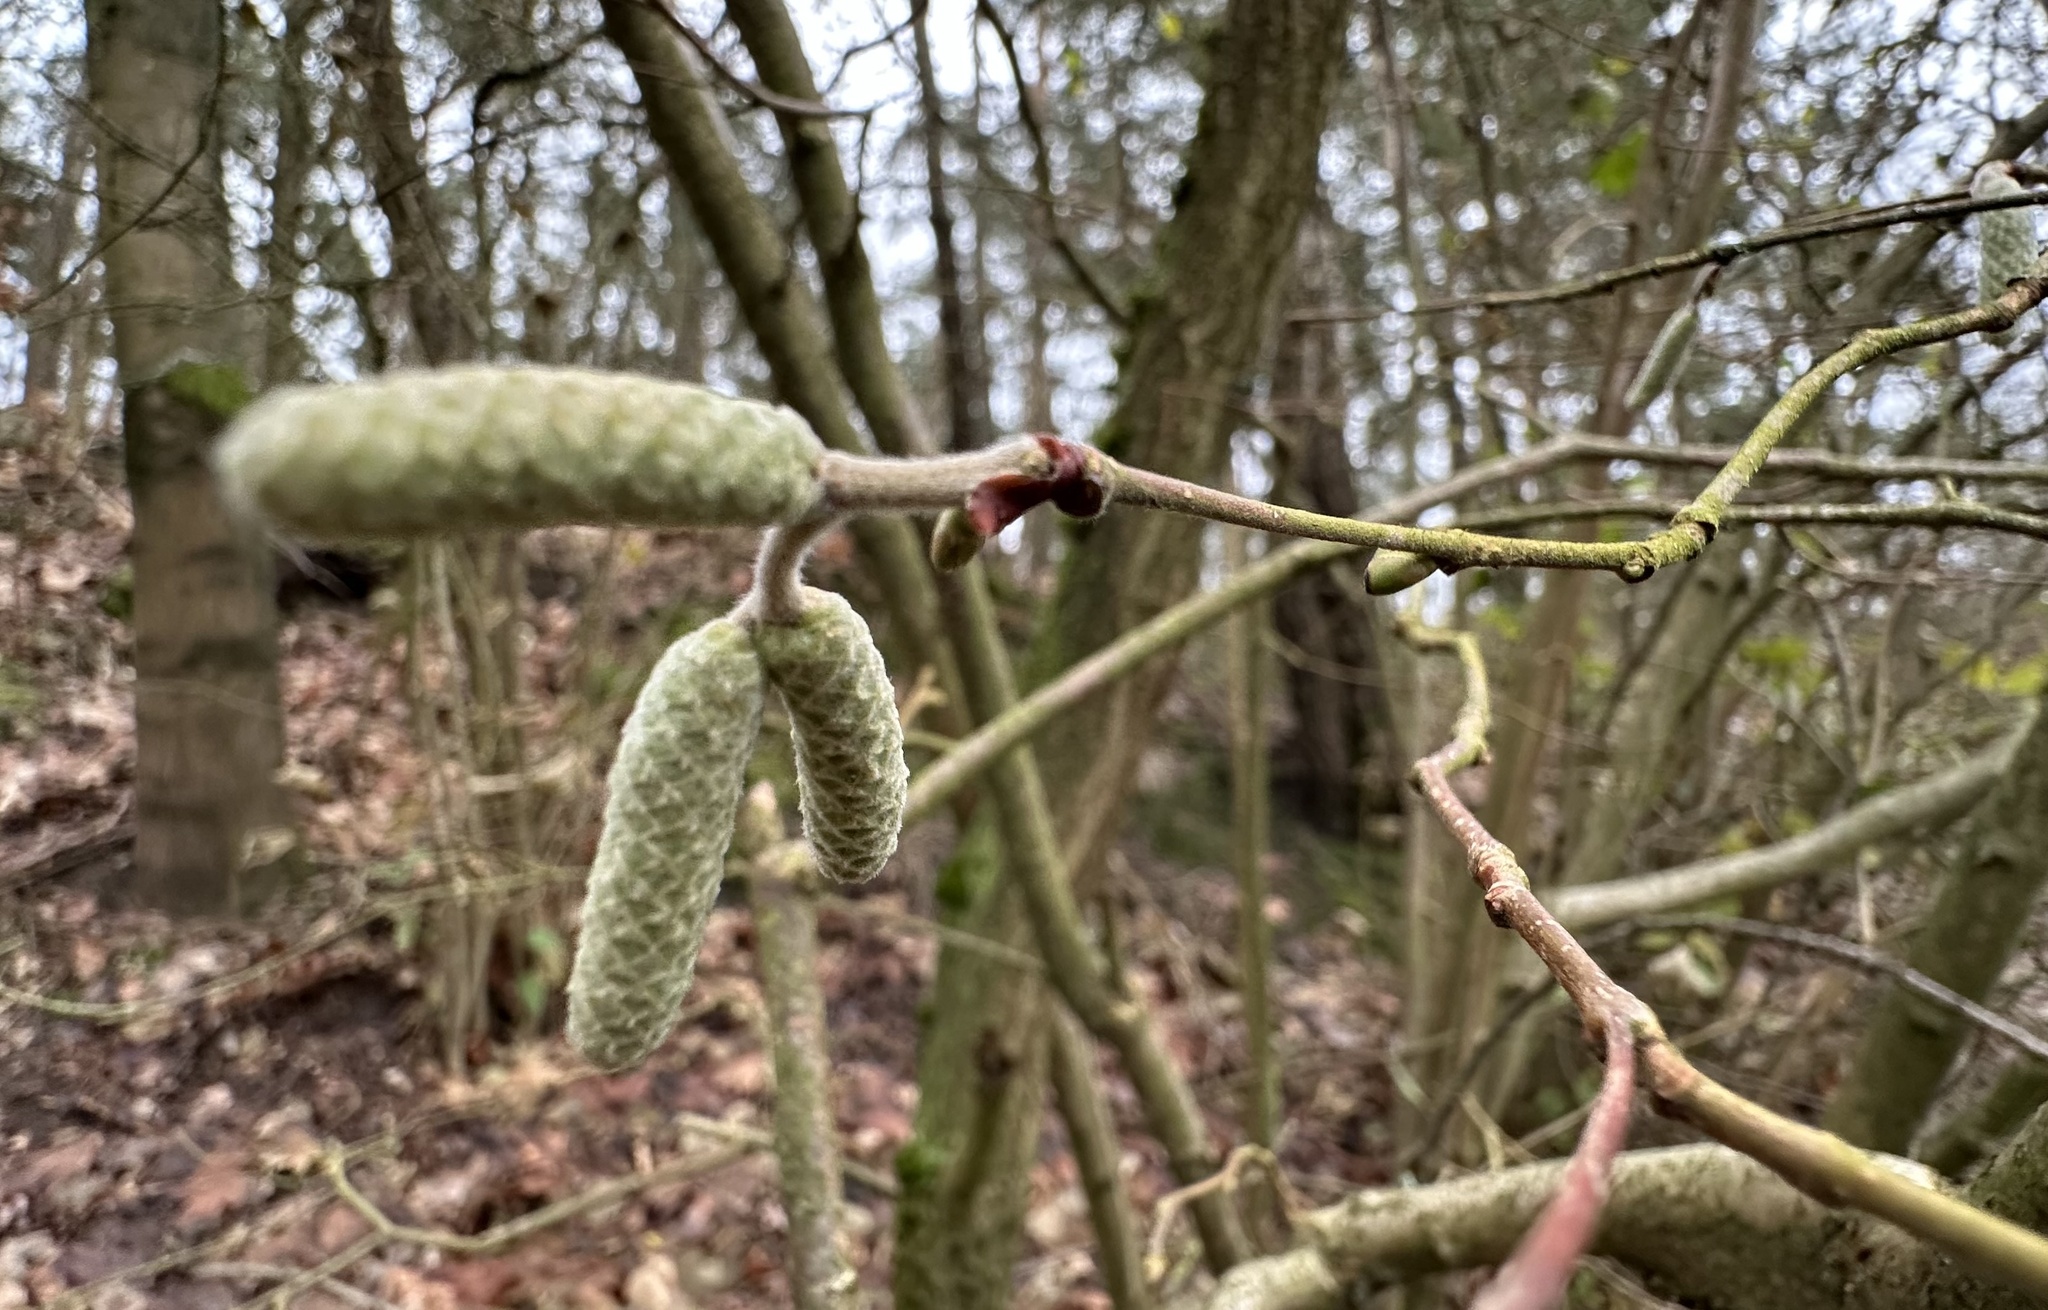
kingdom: Plantae
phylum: Tracheophyta
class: Magnoliopsida
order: Fagales
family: Betulaceae
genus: Corylus
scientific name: Corylus avellana
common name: European hazel
